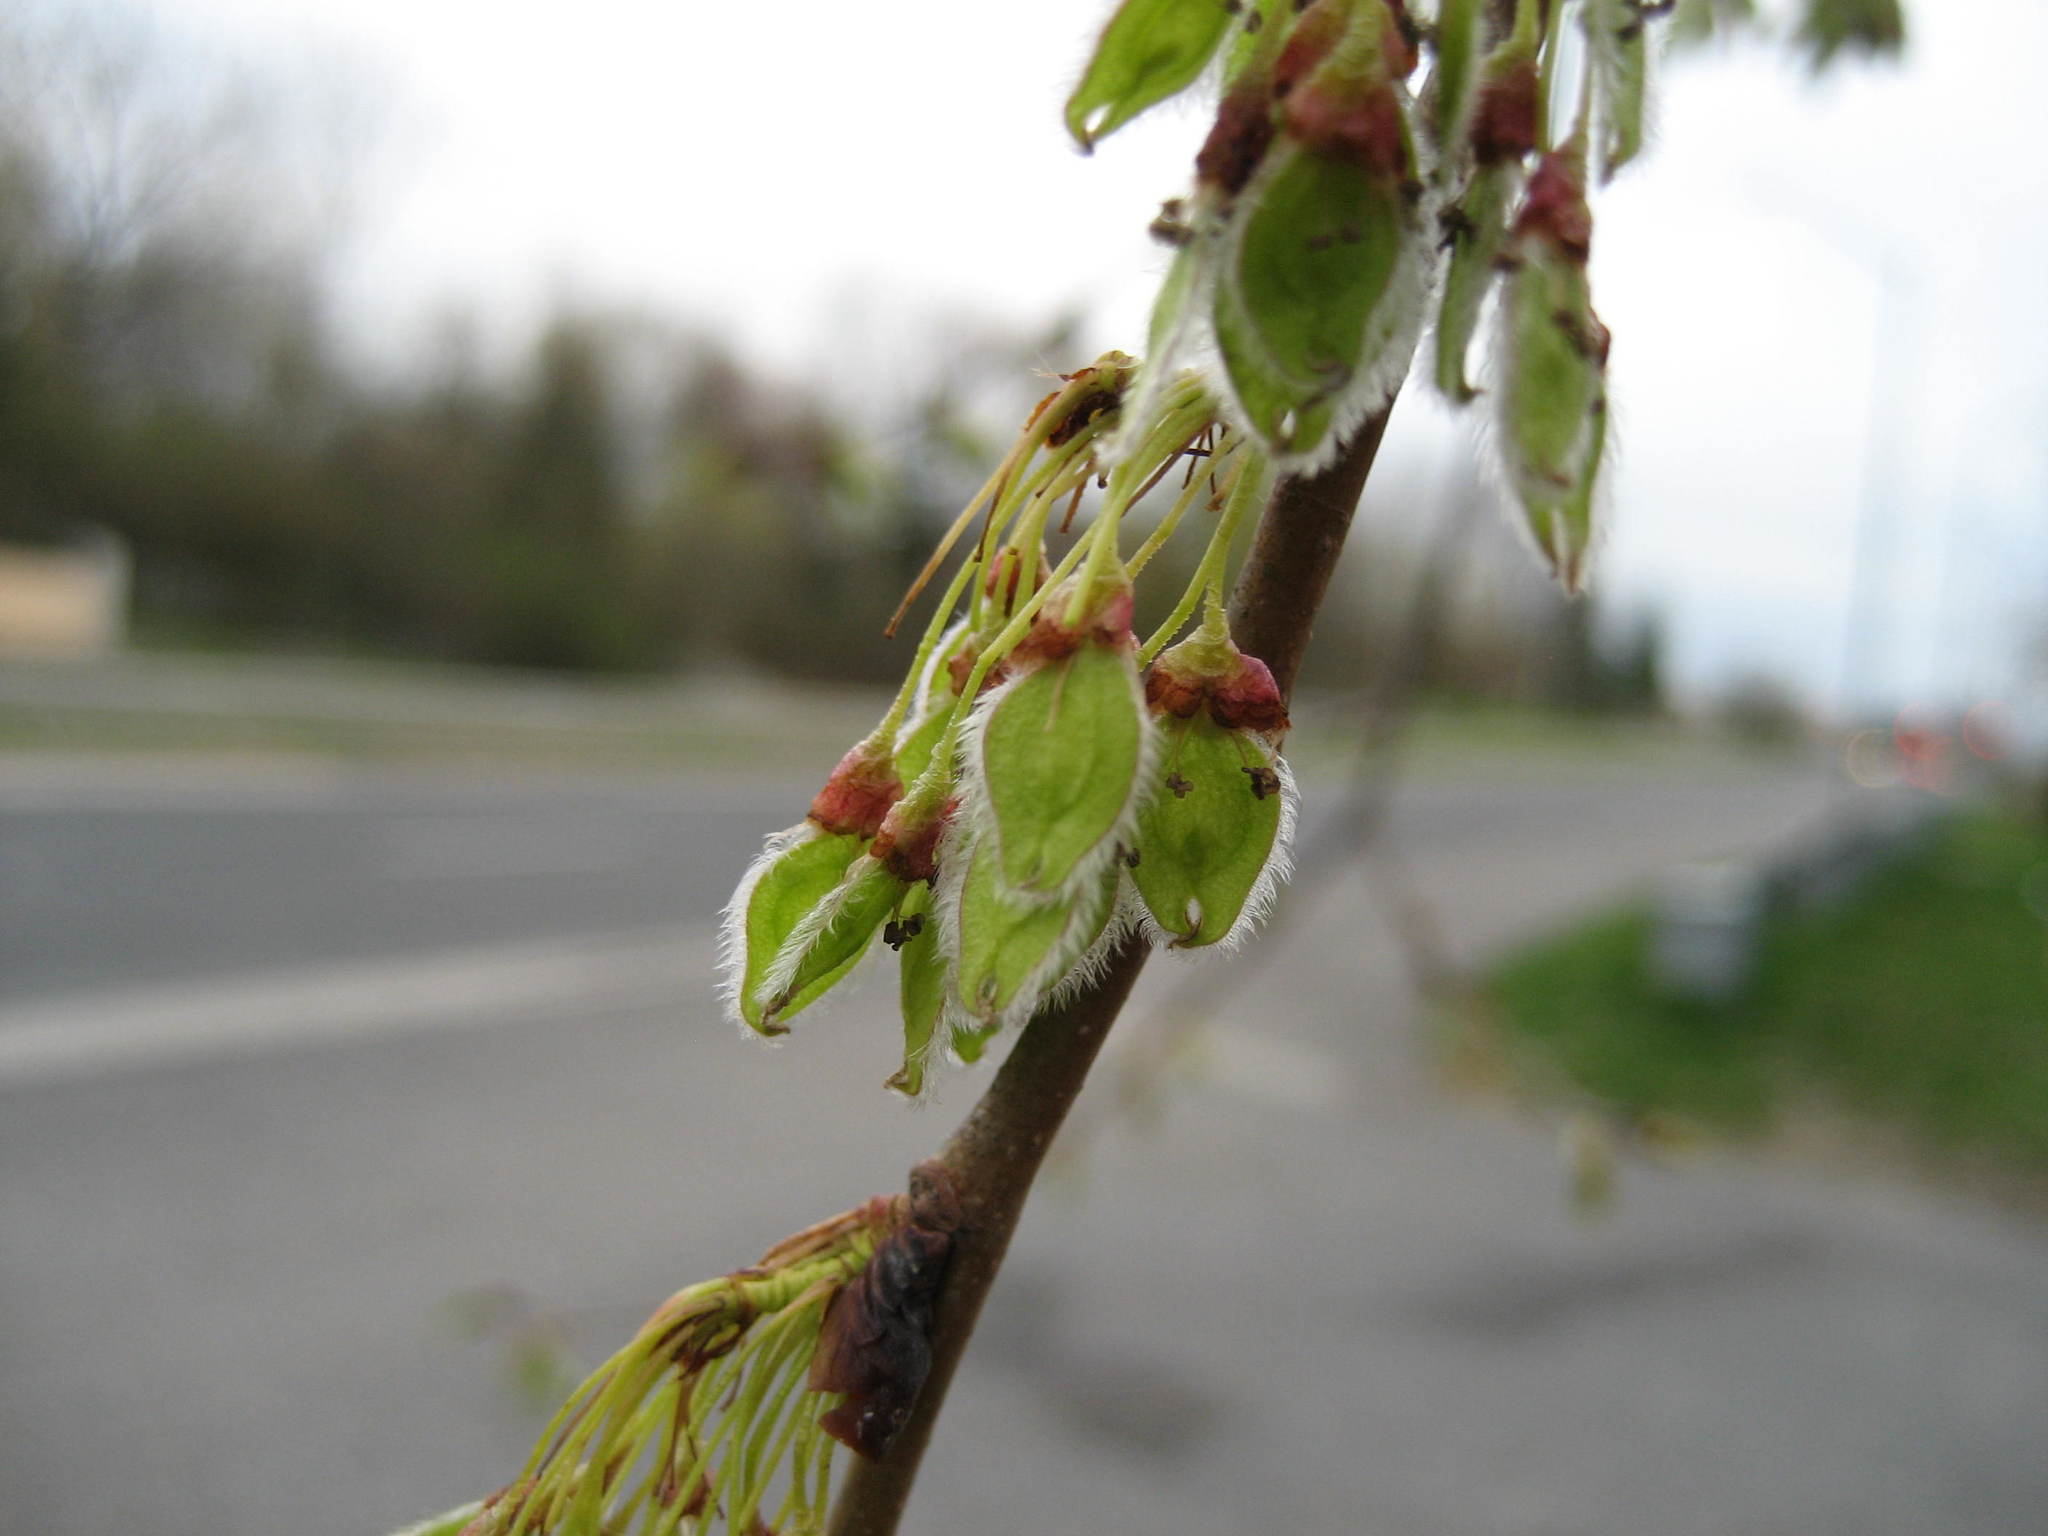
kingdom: Plantae
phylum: Tracheophyta
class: Magnoliopsida
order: Rosales
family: Ulmaceae
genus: Ulmus
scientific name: Ulmus americana
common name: American elm
